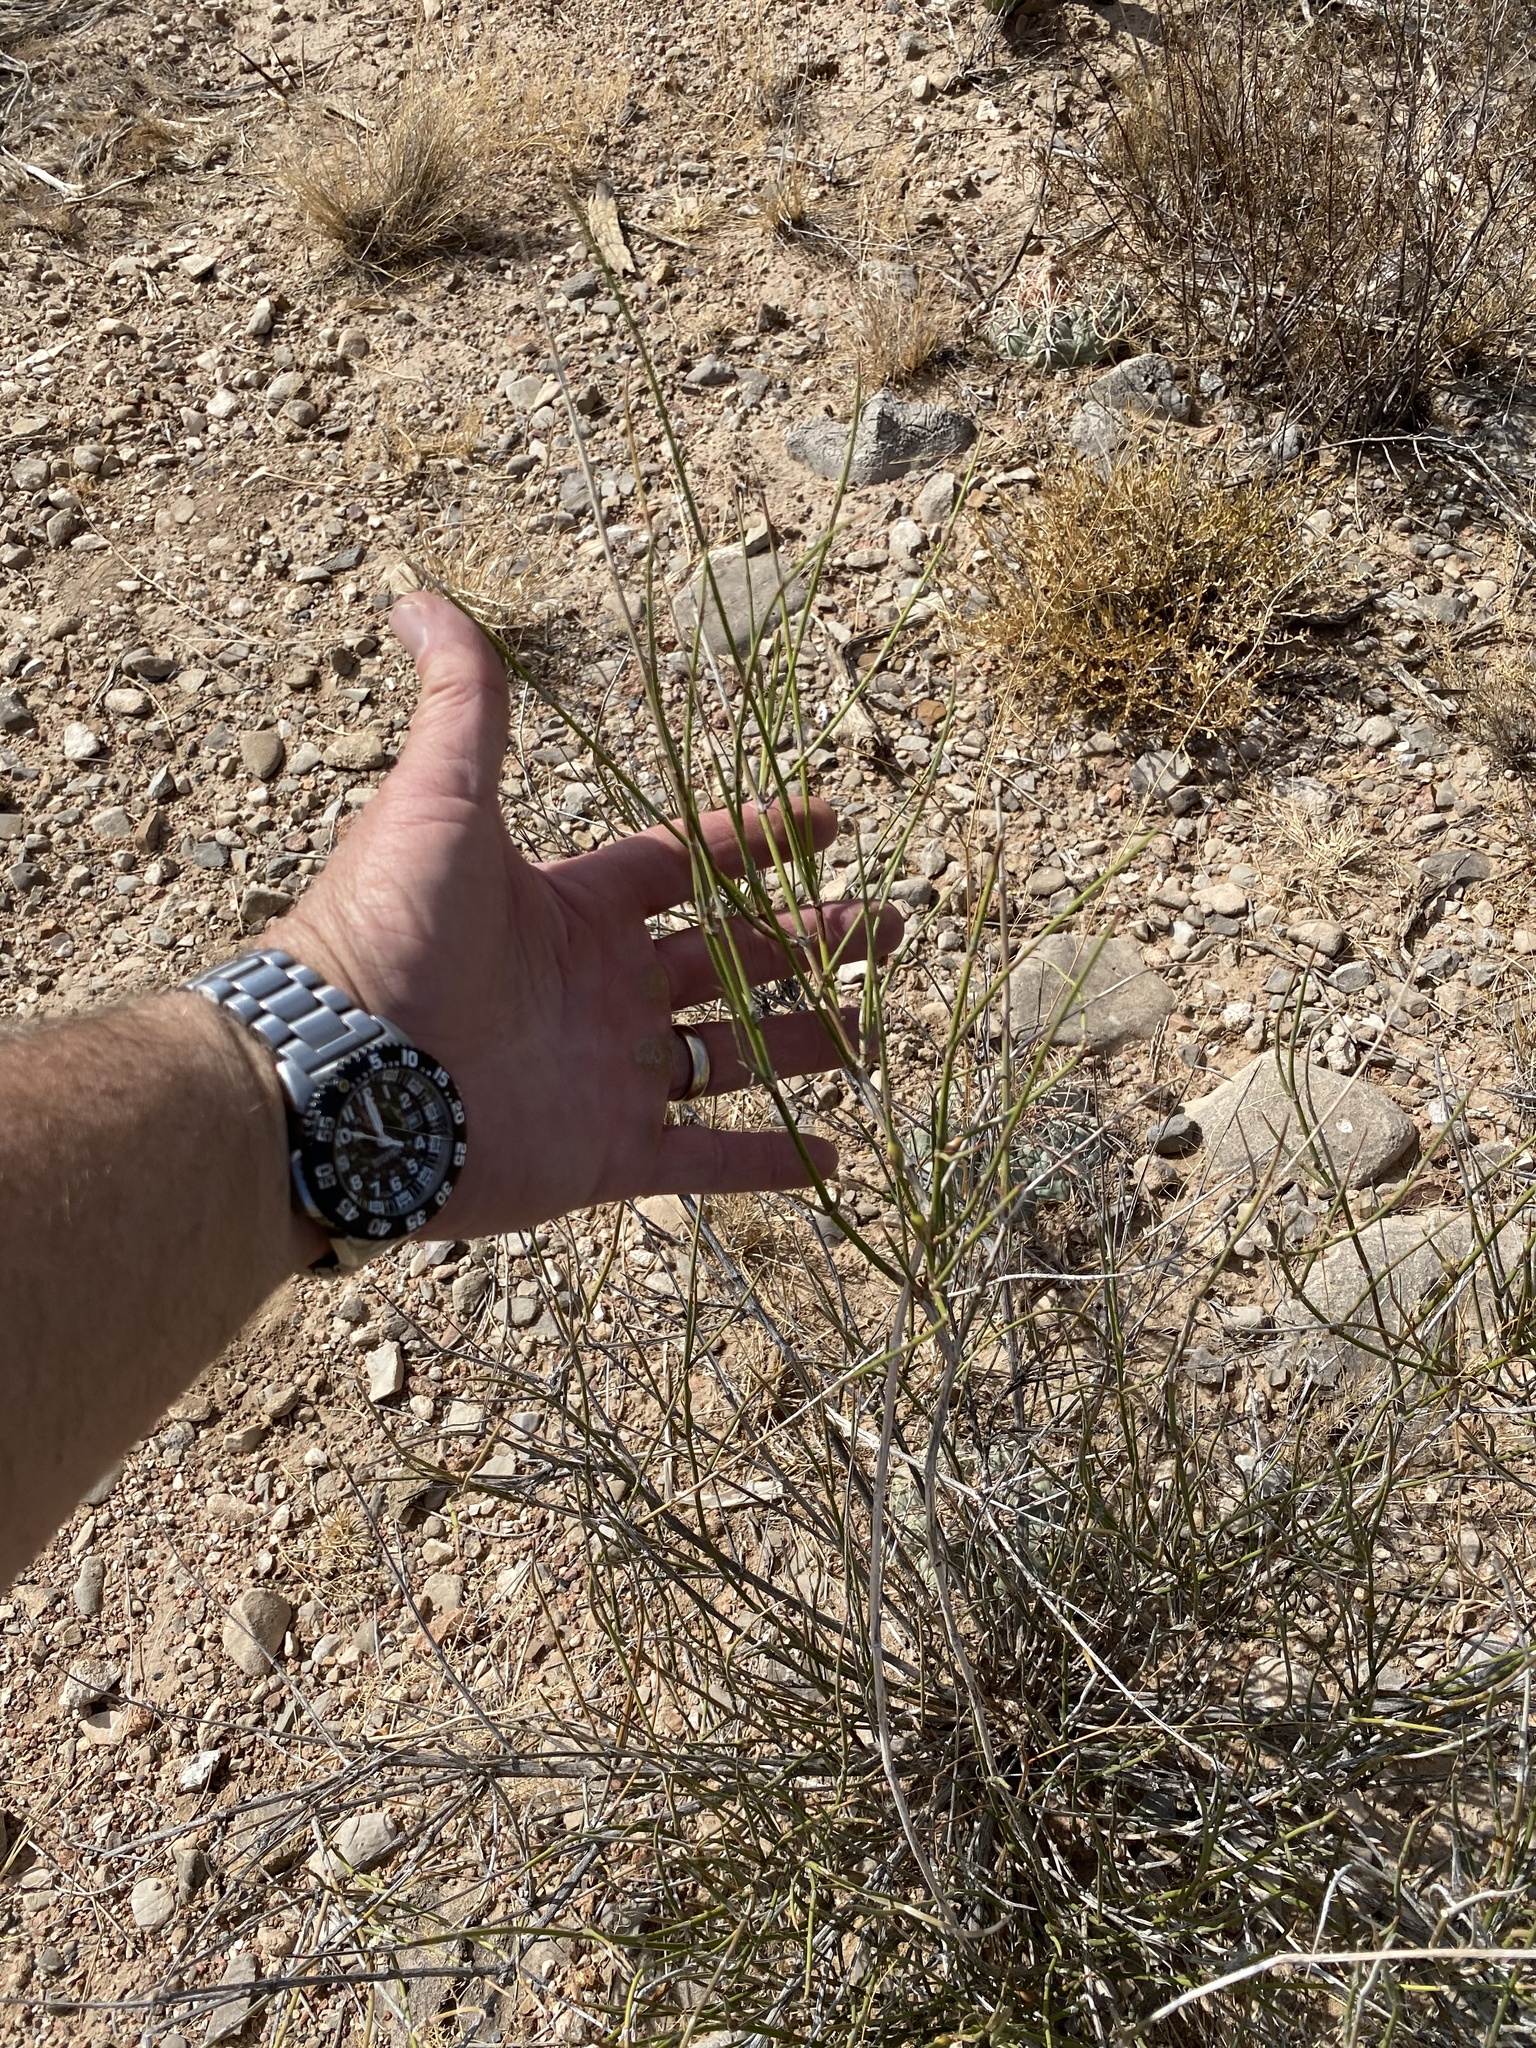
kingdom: Plantae
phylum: Tracheophyta
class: Gnetopsida
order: Ephedrales
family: Ephedraceae
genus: Ephedra
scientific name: Ephedra trifurca
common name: Mexican-tea
